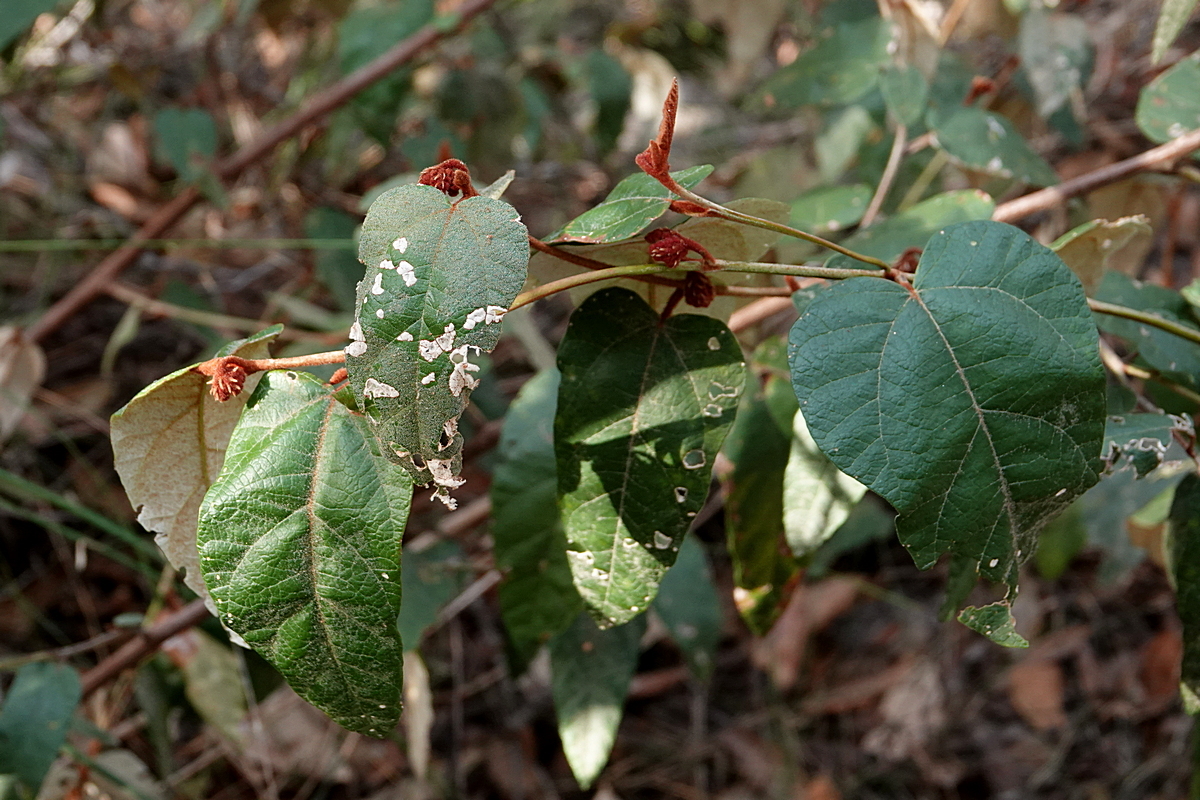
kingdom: Plantae
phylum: Tracheophyta
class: Magnoliopsida
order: Malvales
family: Malvaceae
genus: Lasiopetalum
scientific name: Lasiopetalum macrophyllum
